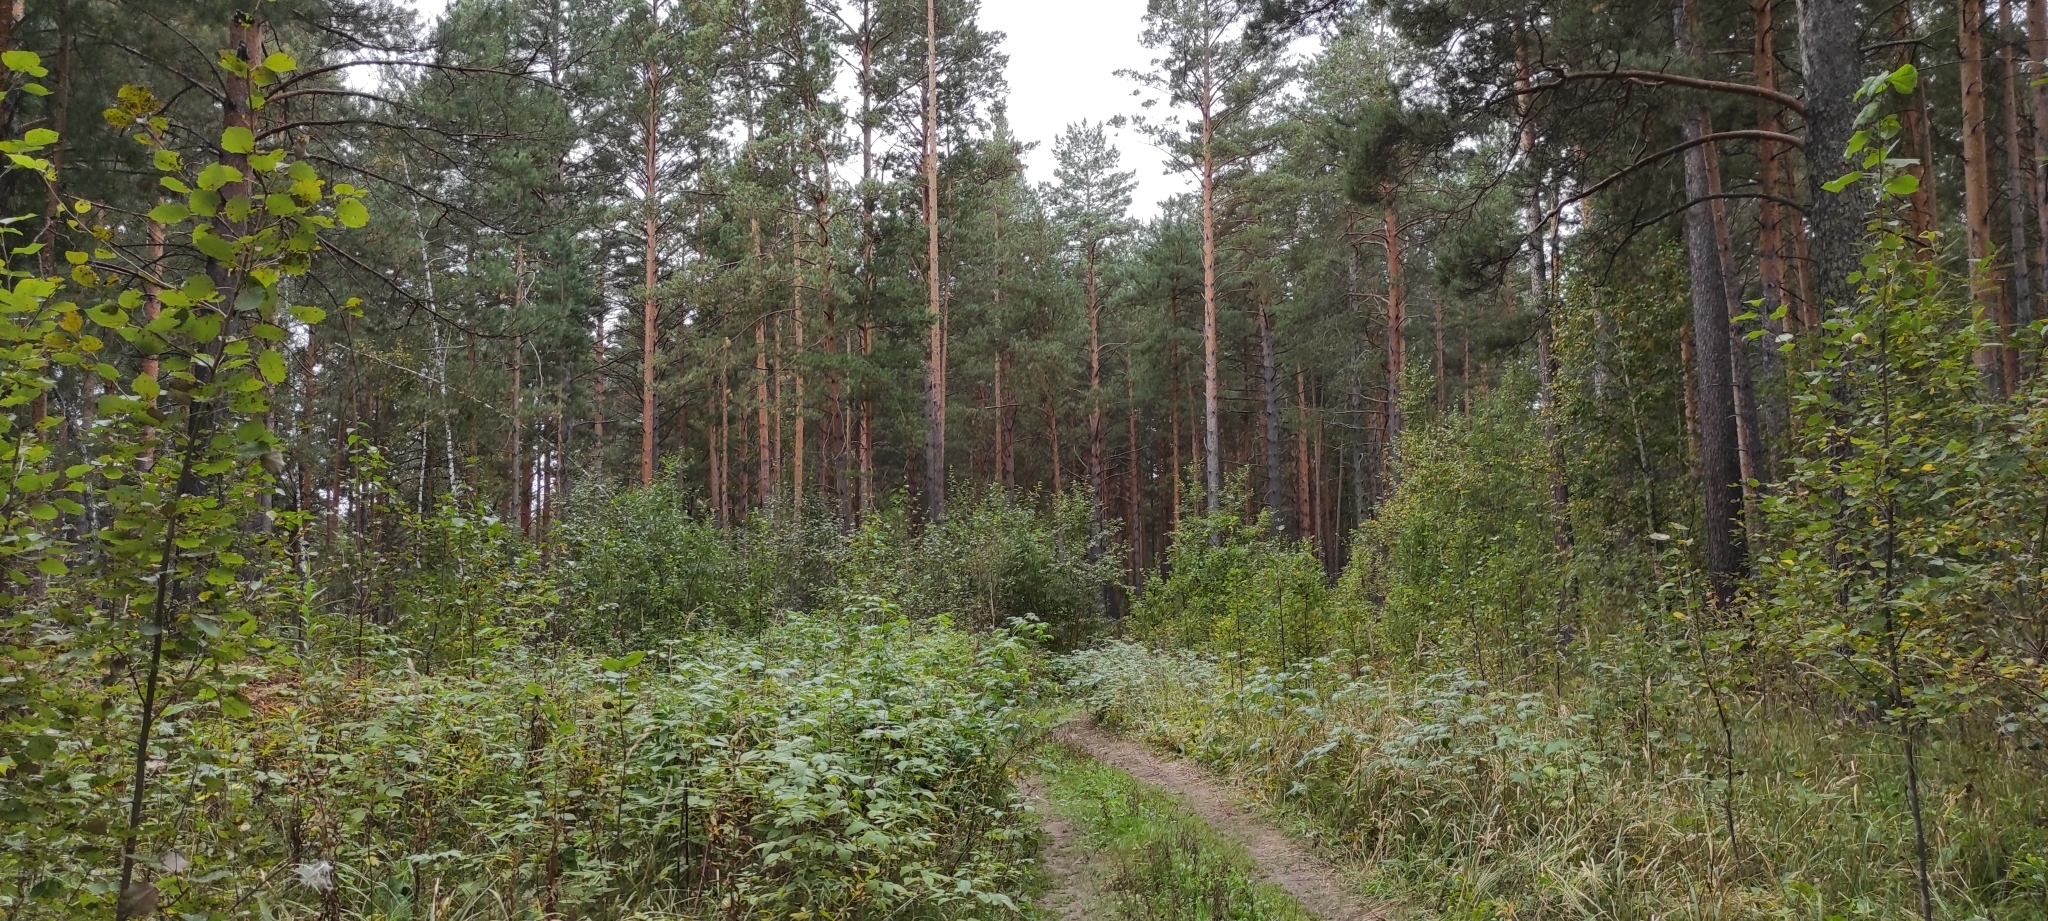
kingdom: Plantae
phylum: Tracheophyta
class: Pinopsida
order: Pinales
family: Pinaceae
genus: Pinus
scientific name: Pinus sylvestris
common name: Scots pine
